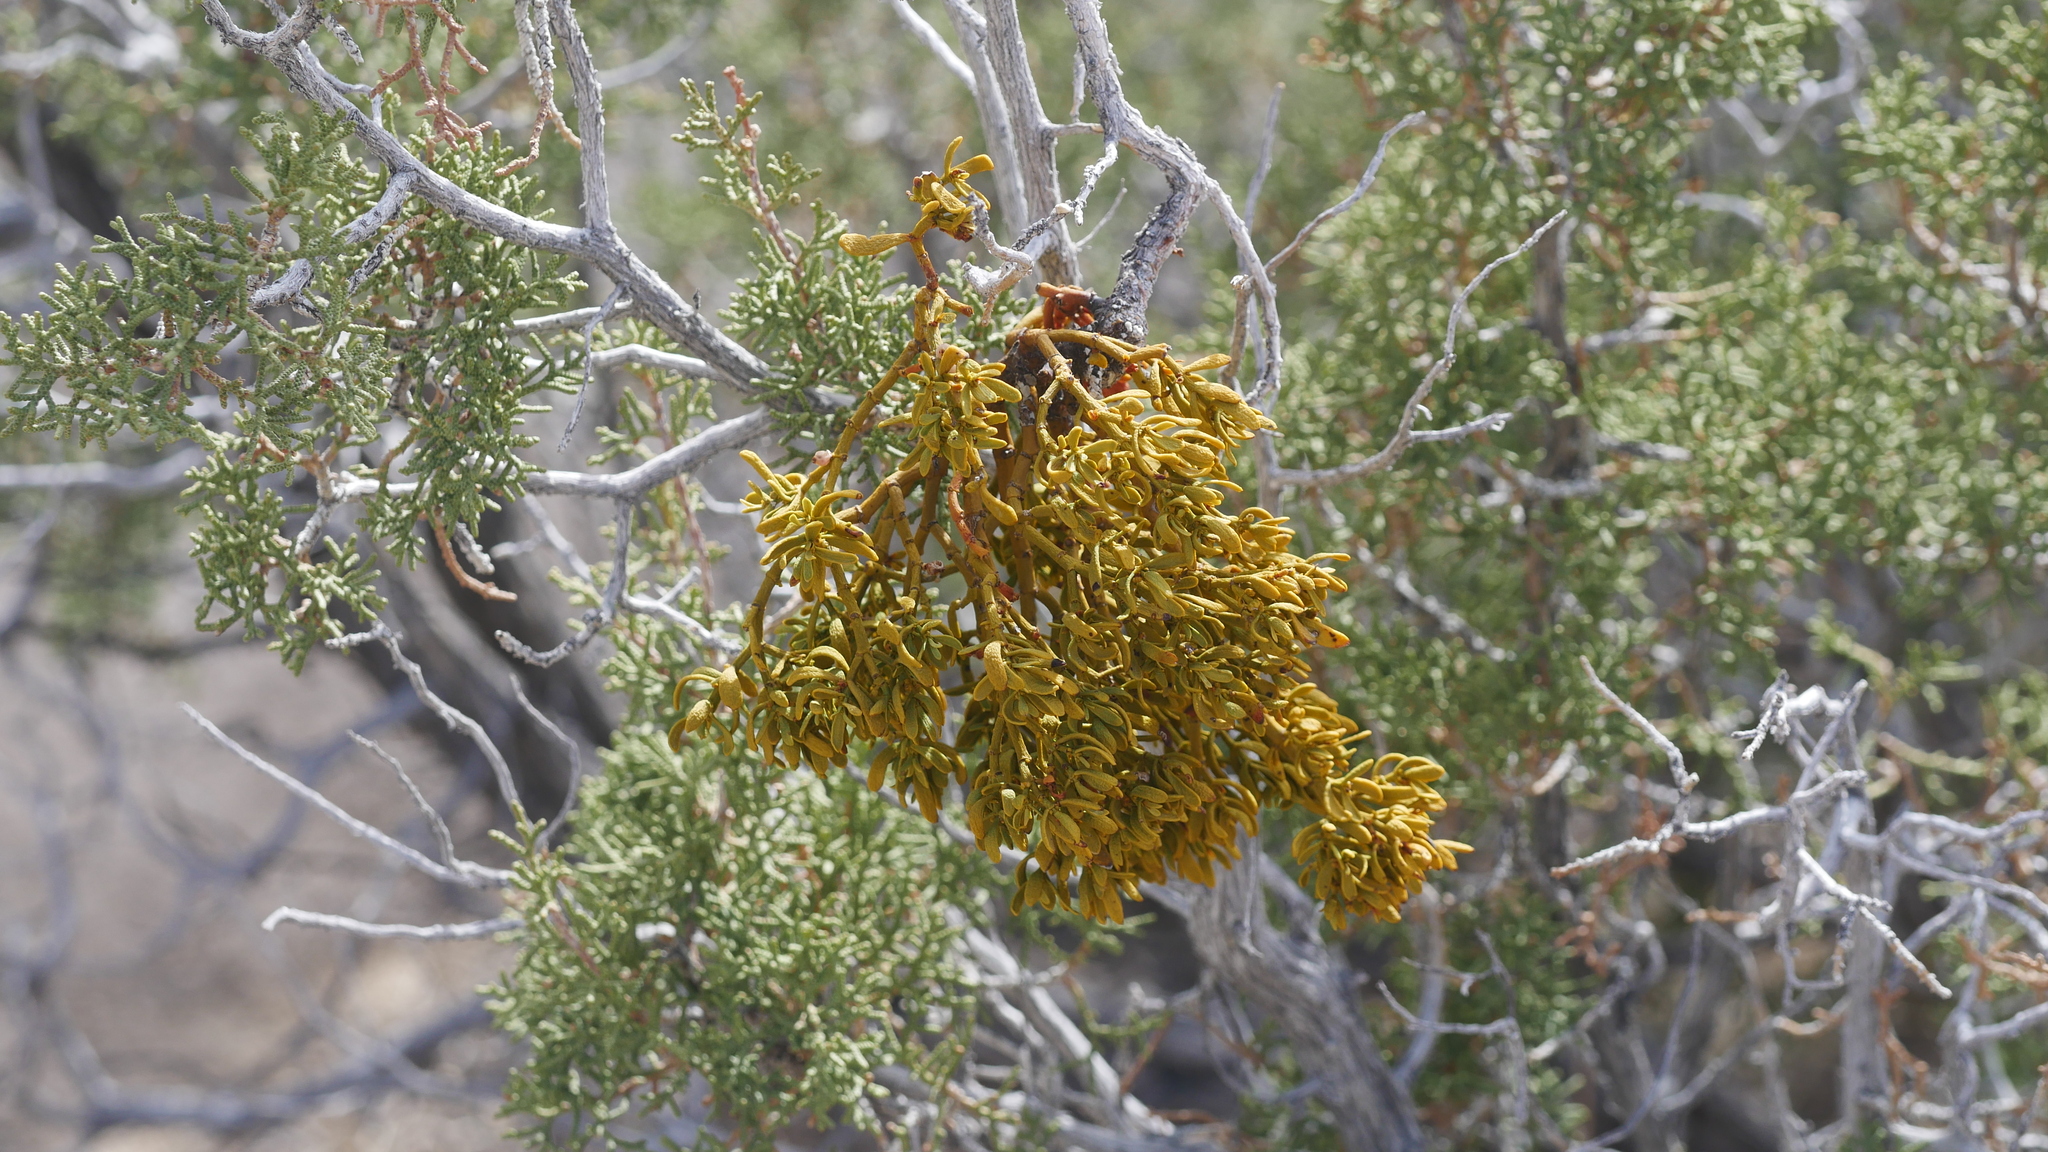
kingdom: Plantae
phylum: Tracheophyta
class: Magnoliopsida
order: Santalales
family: Viscaceae
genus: Phoradendron
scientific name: Phoradendron bolleanum
